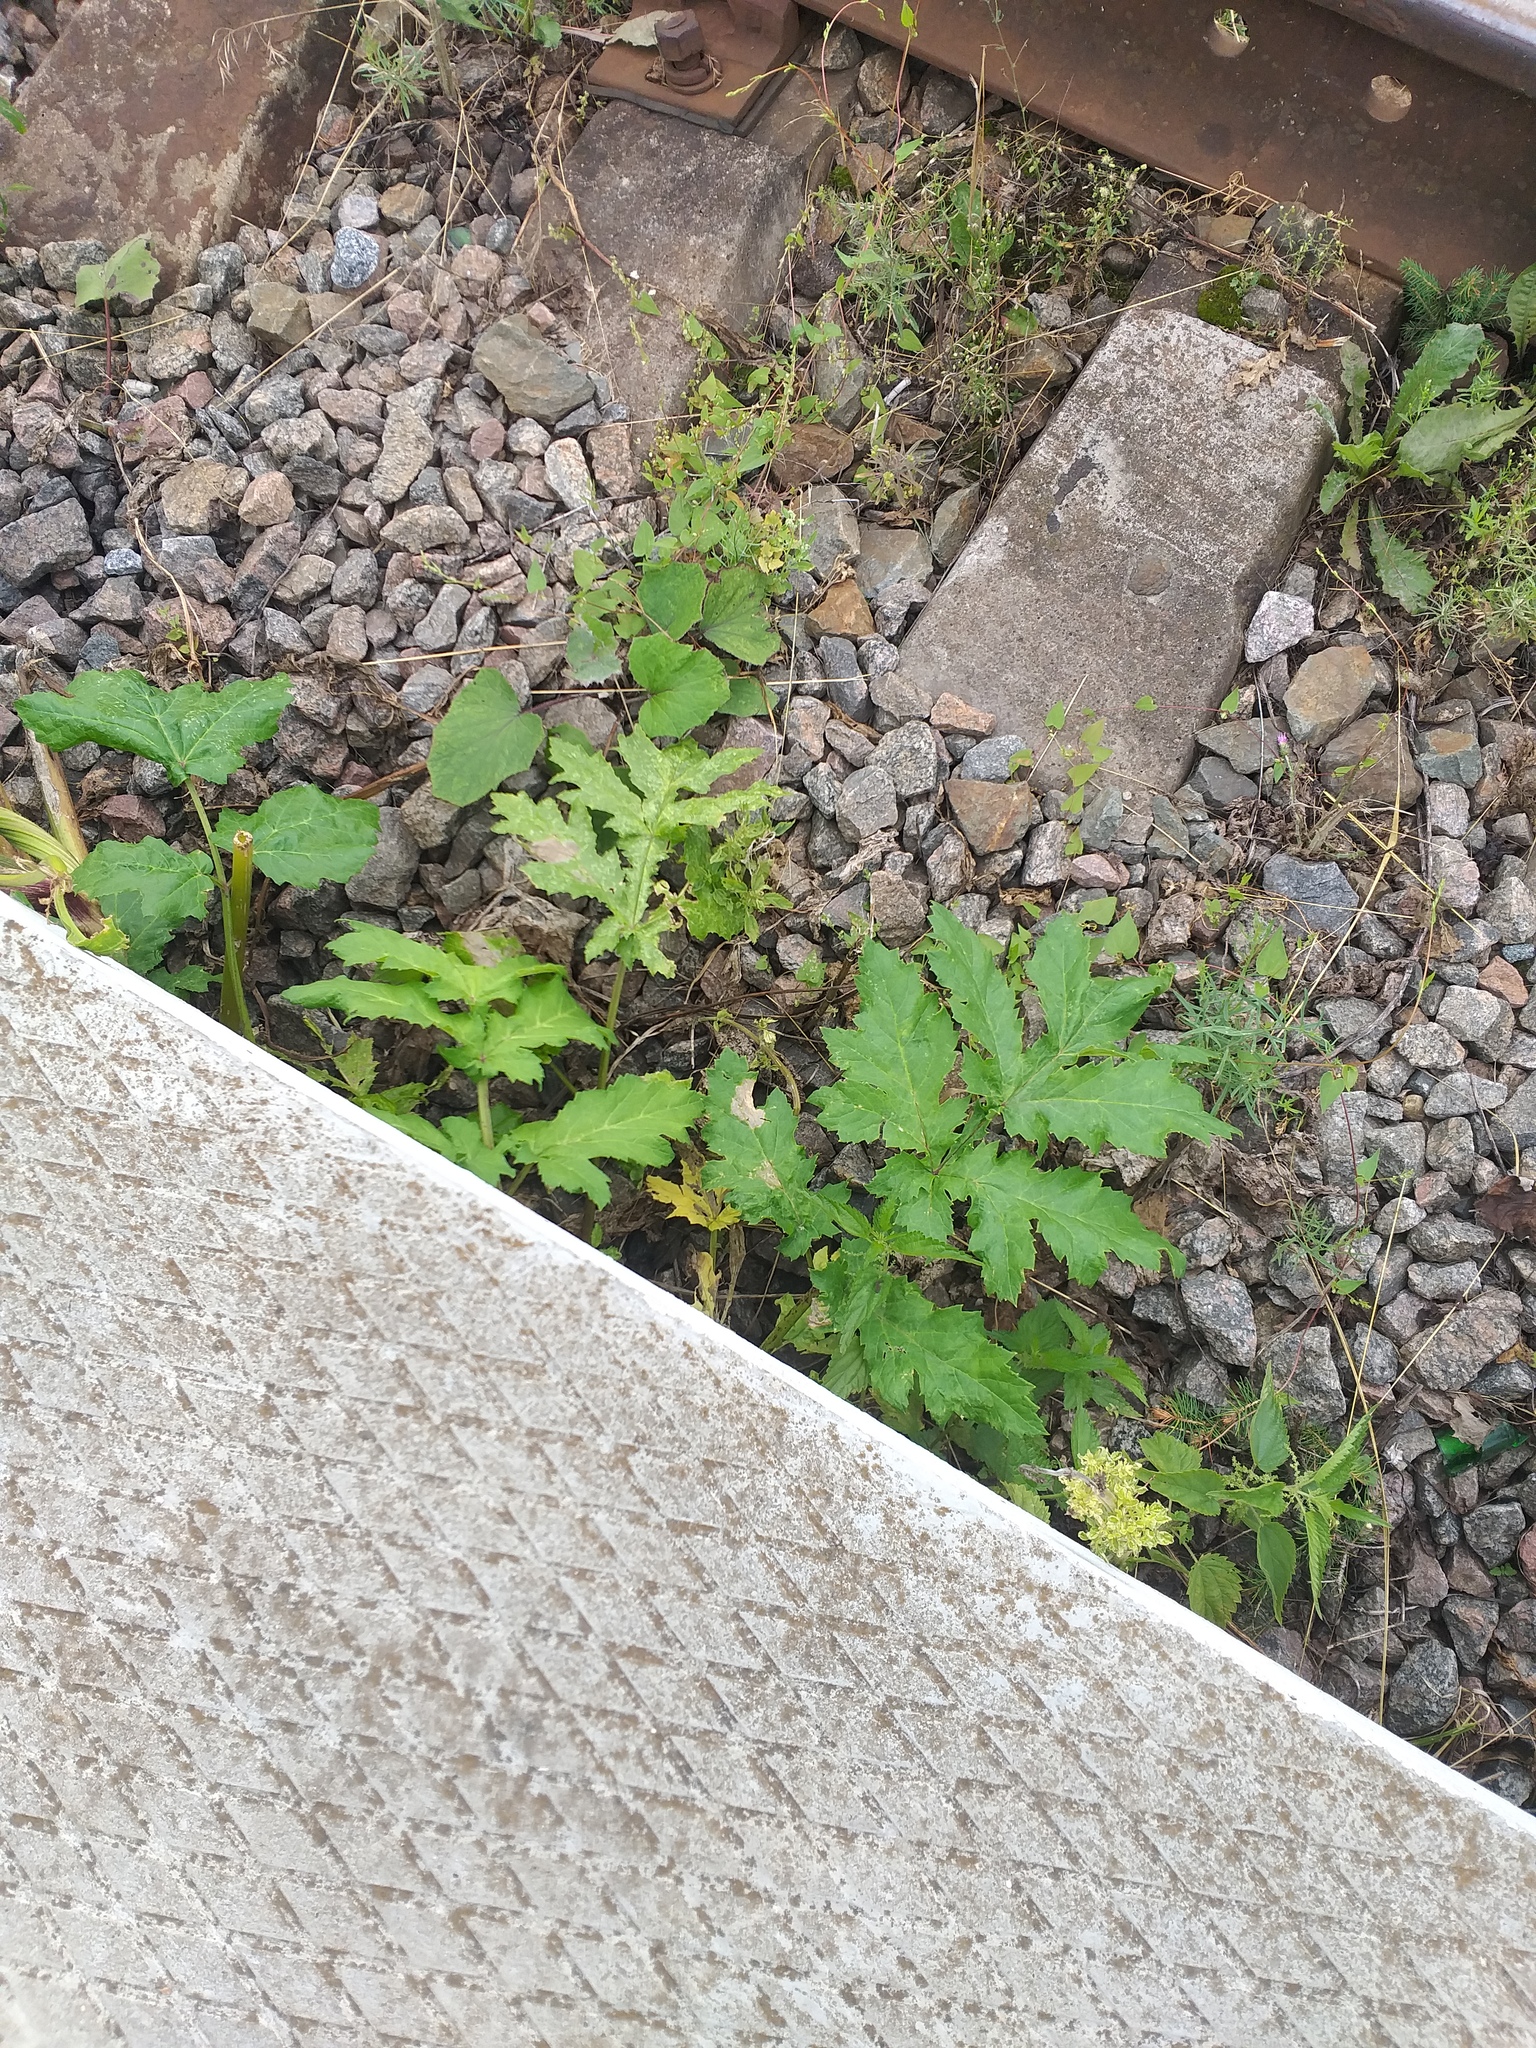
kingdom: Plantae
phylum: Tracheophyta
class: Magnoliopsida
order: Apiales
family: Apiaceae
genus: Heracleum
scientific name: Heracleum sosnowskyi
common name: Sosnowsky's hogweed
